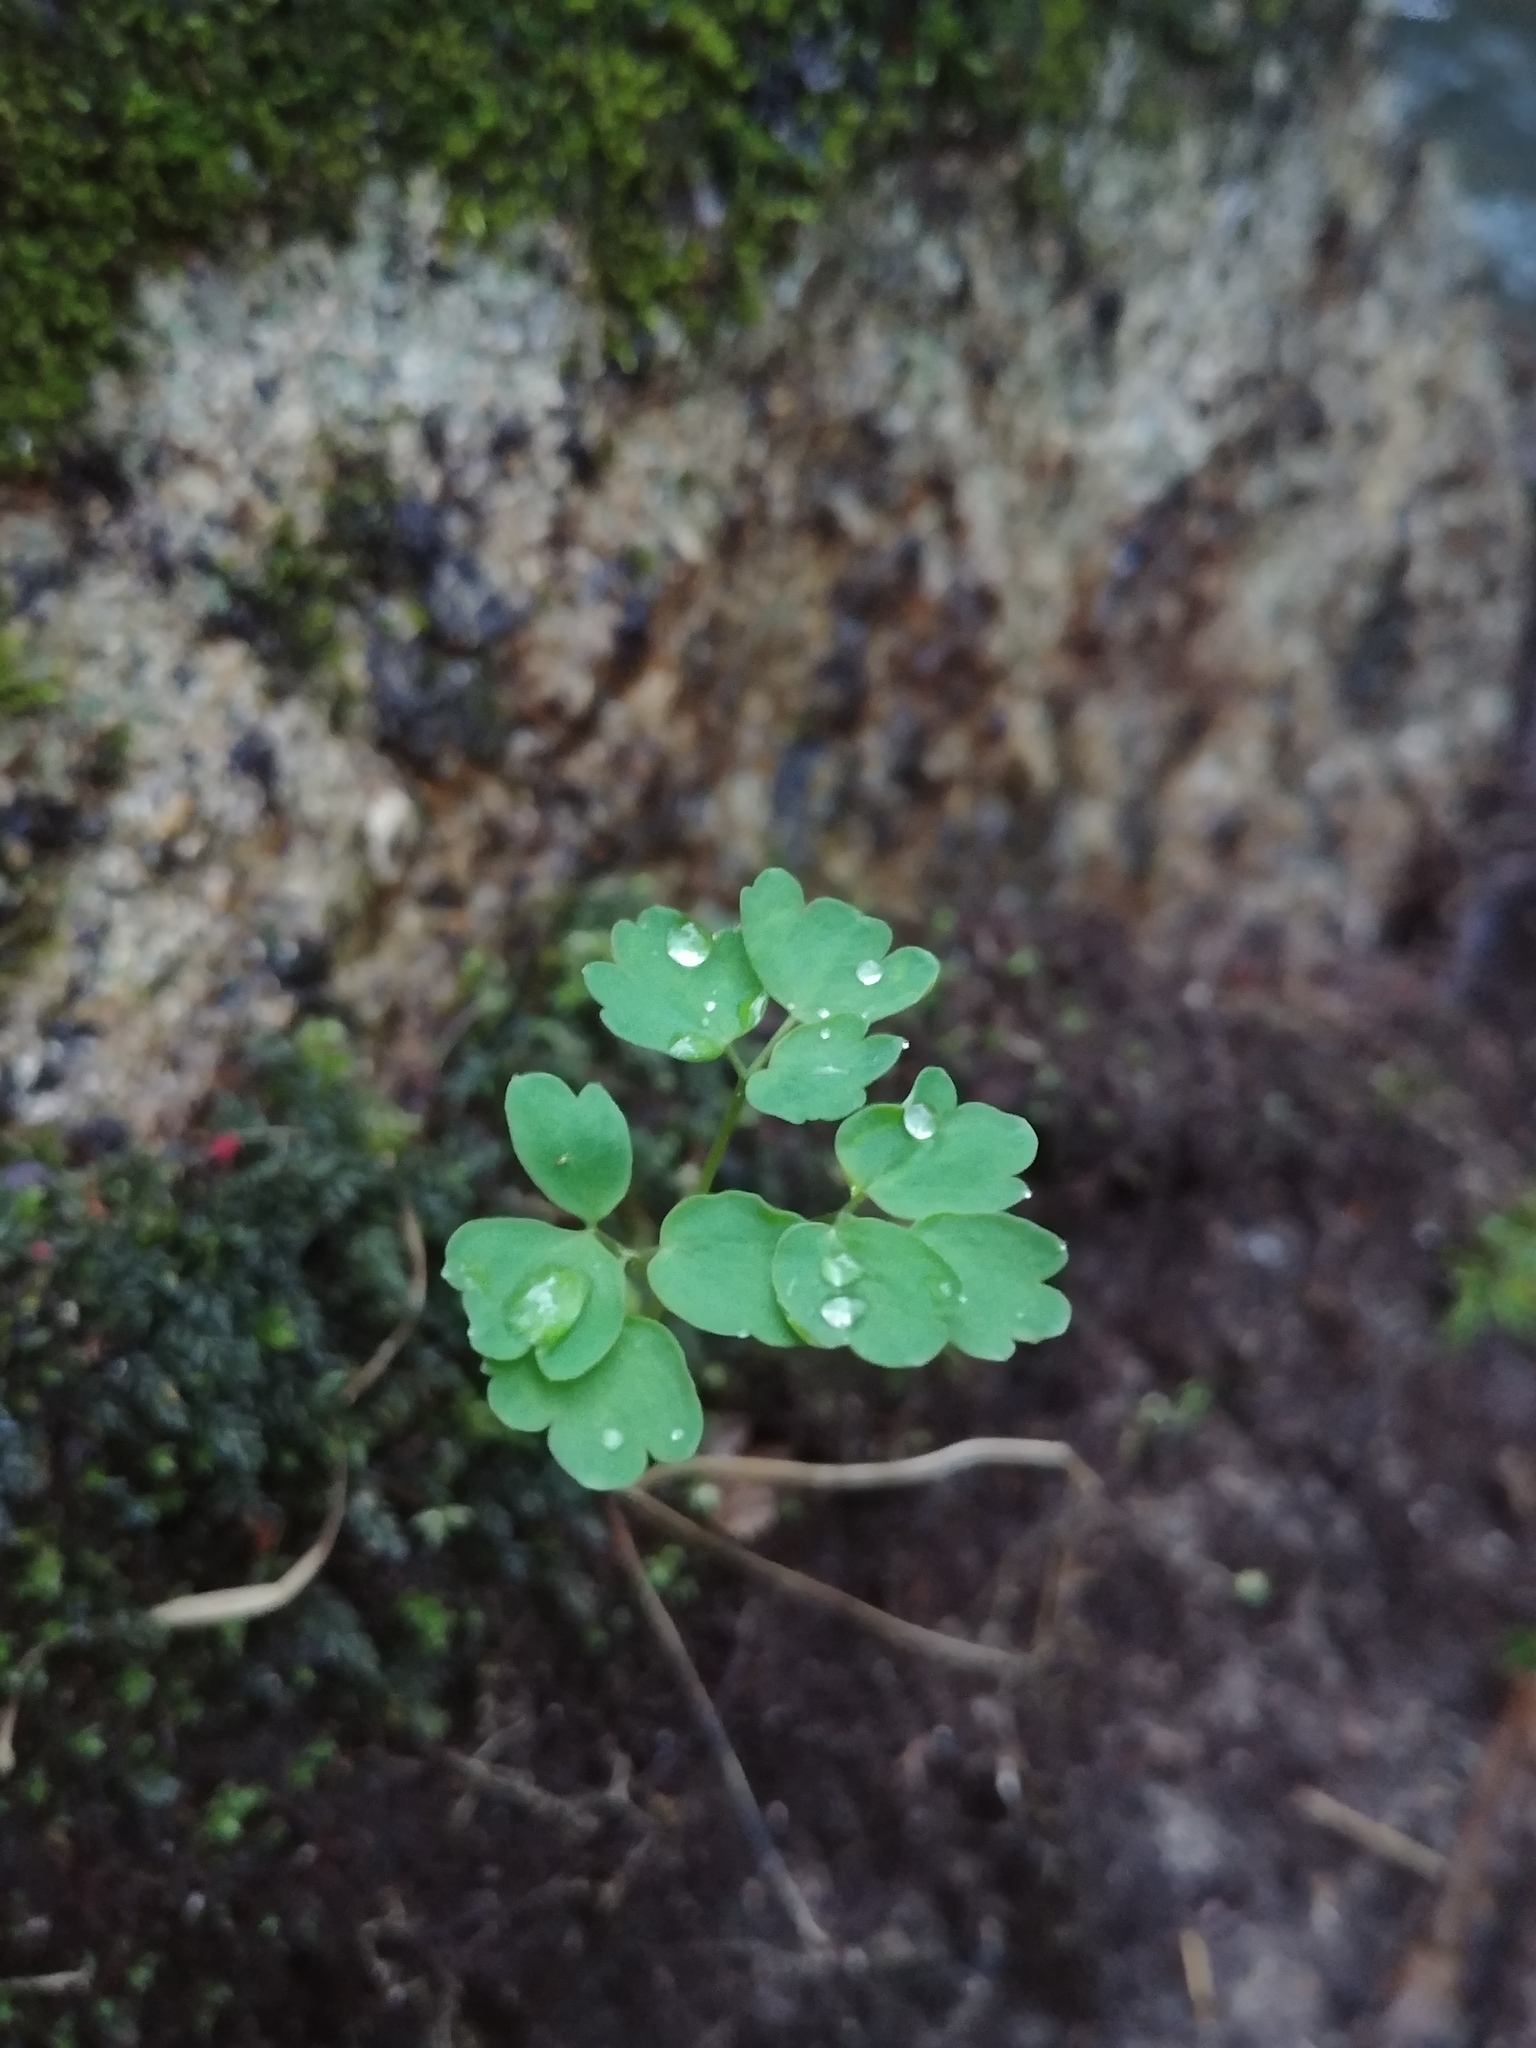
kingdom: Plantae
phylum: Tracheophyta
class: Magnoliopsida
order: Ranunculales
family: Ranunculaceae
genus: Thalictrum
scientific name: Thalictrum
